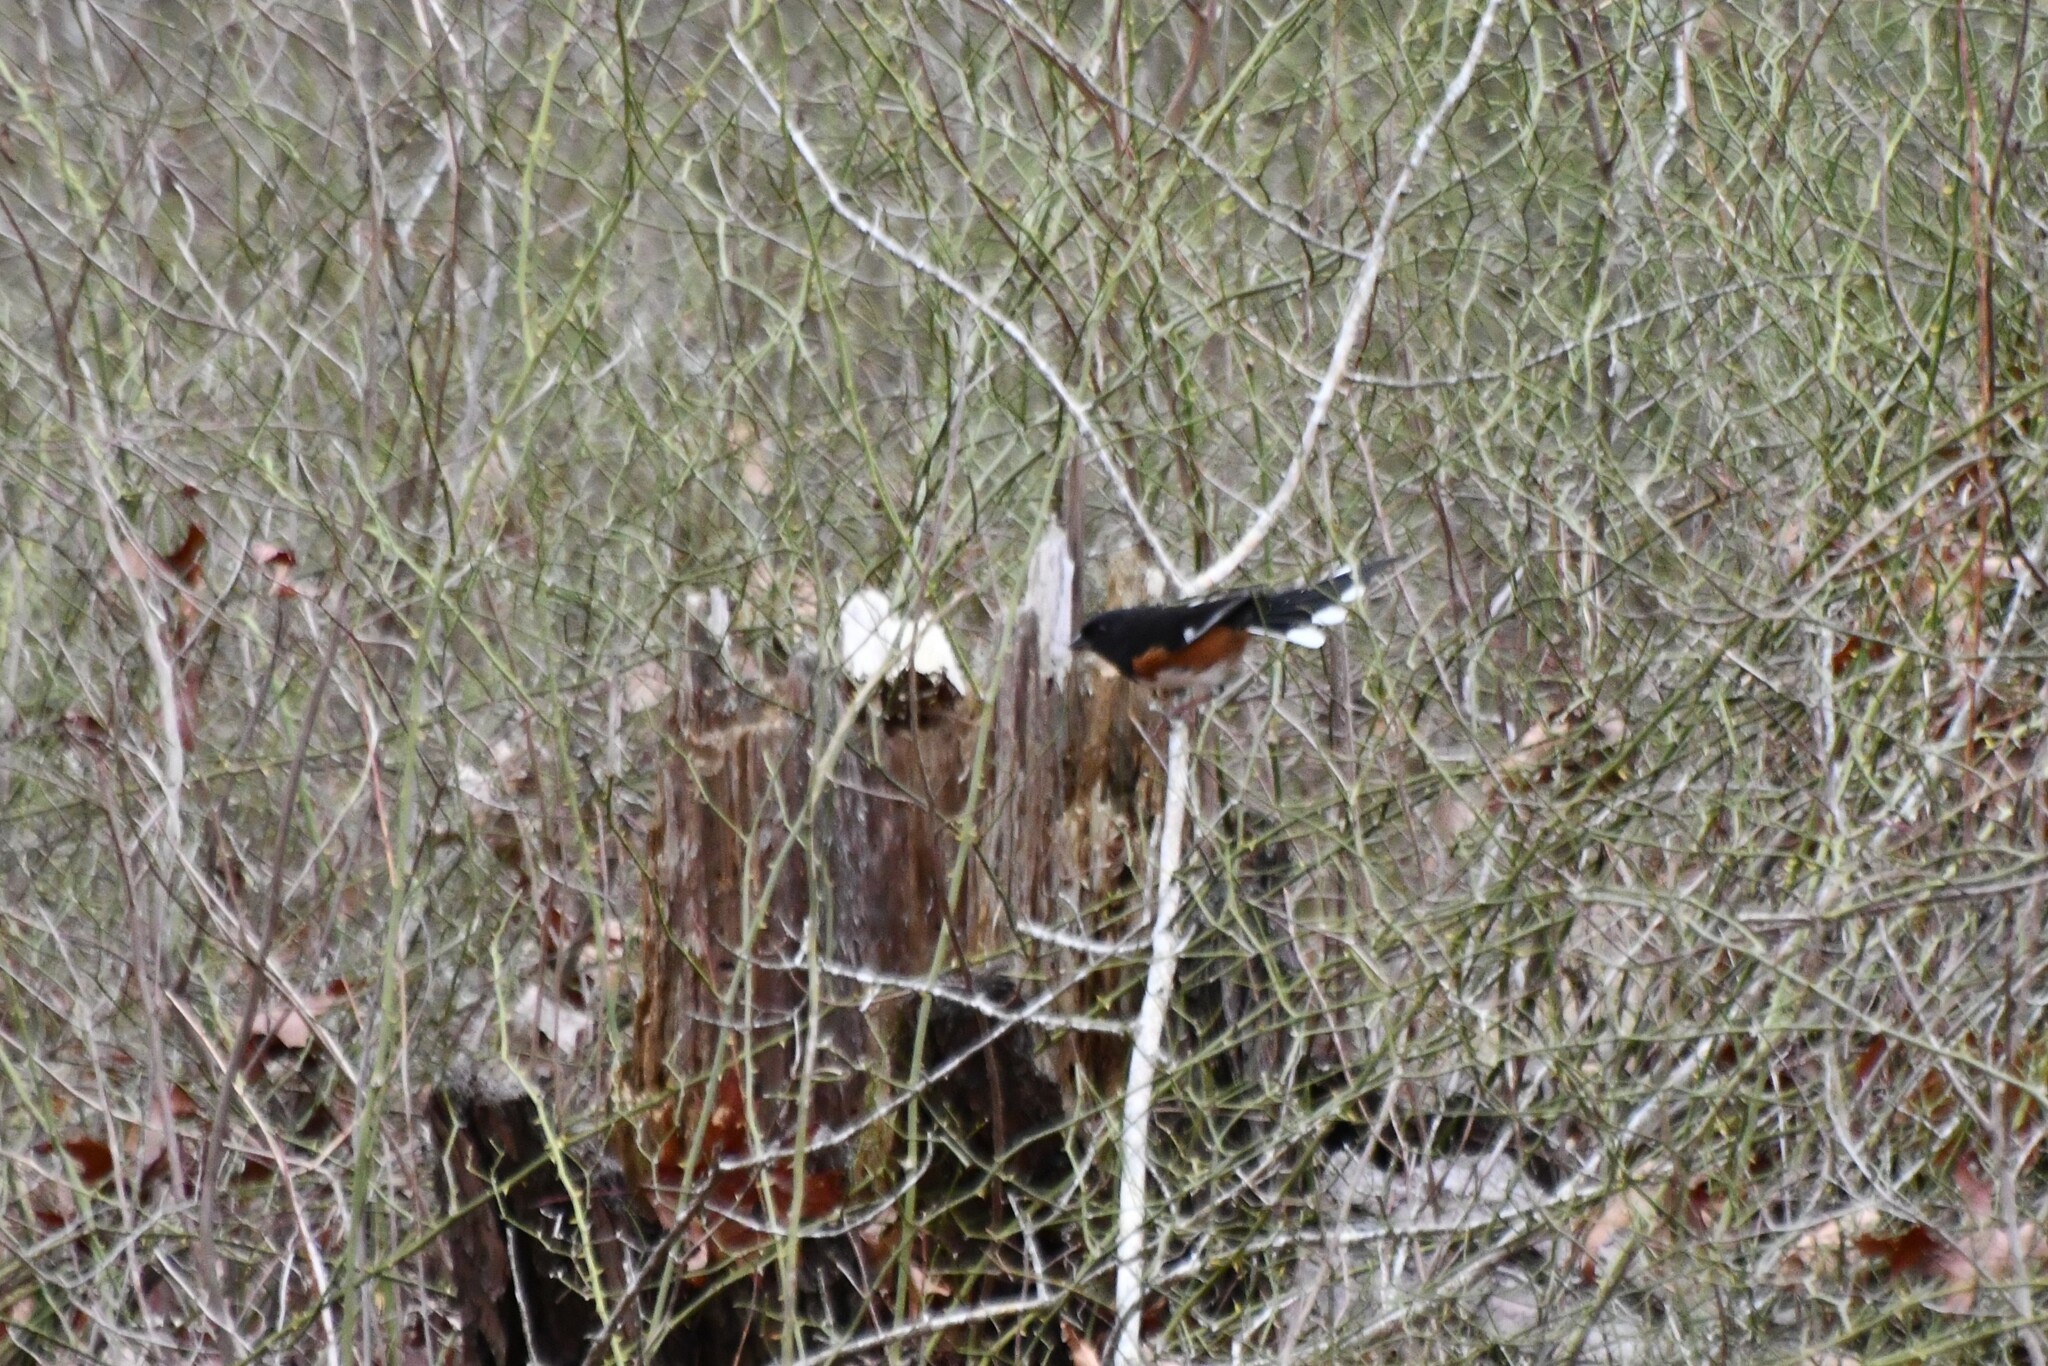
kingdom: Animalia
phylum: Chordata
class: Aves
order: Passeriformes
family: Passerellidae
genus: Pipilo
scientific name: Pipilo erythrophthalmus
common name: Eastern towhee
